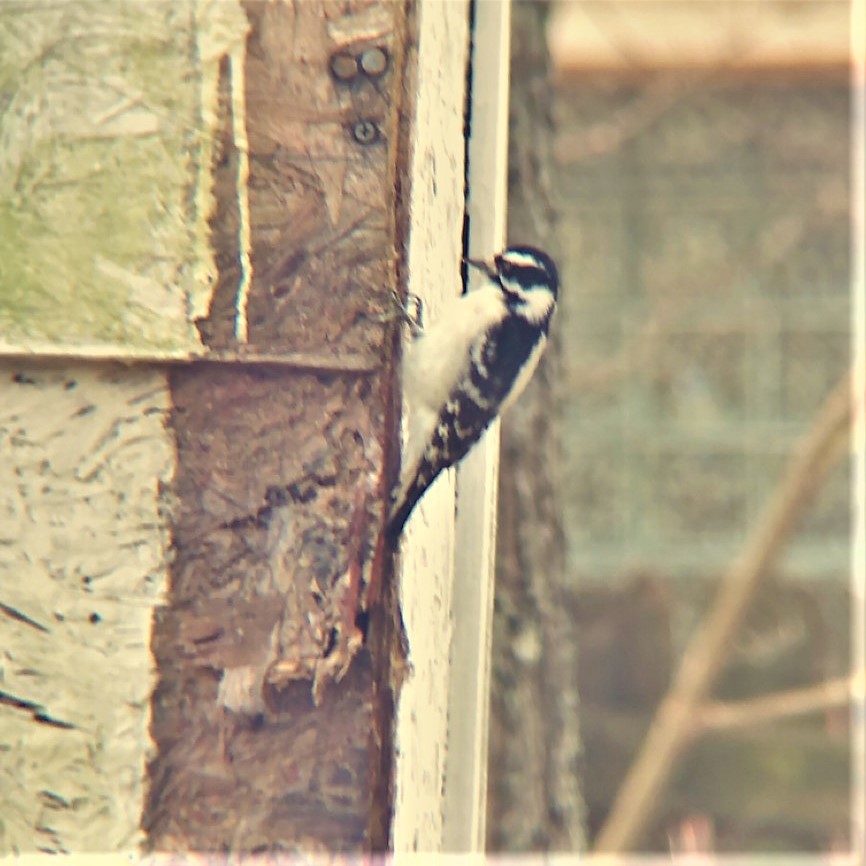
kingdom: Animalia
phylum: Chordata
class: Aves
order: Piciformes
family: Picidae
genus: Dryobates
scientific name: Dryobates pubescens
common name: Downy woodpecker
